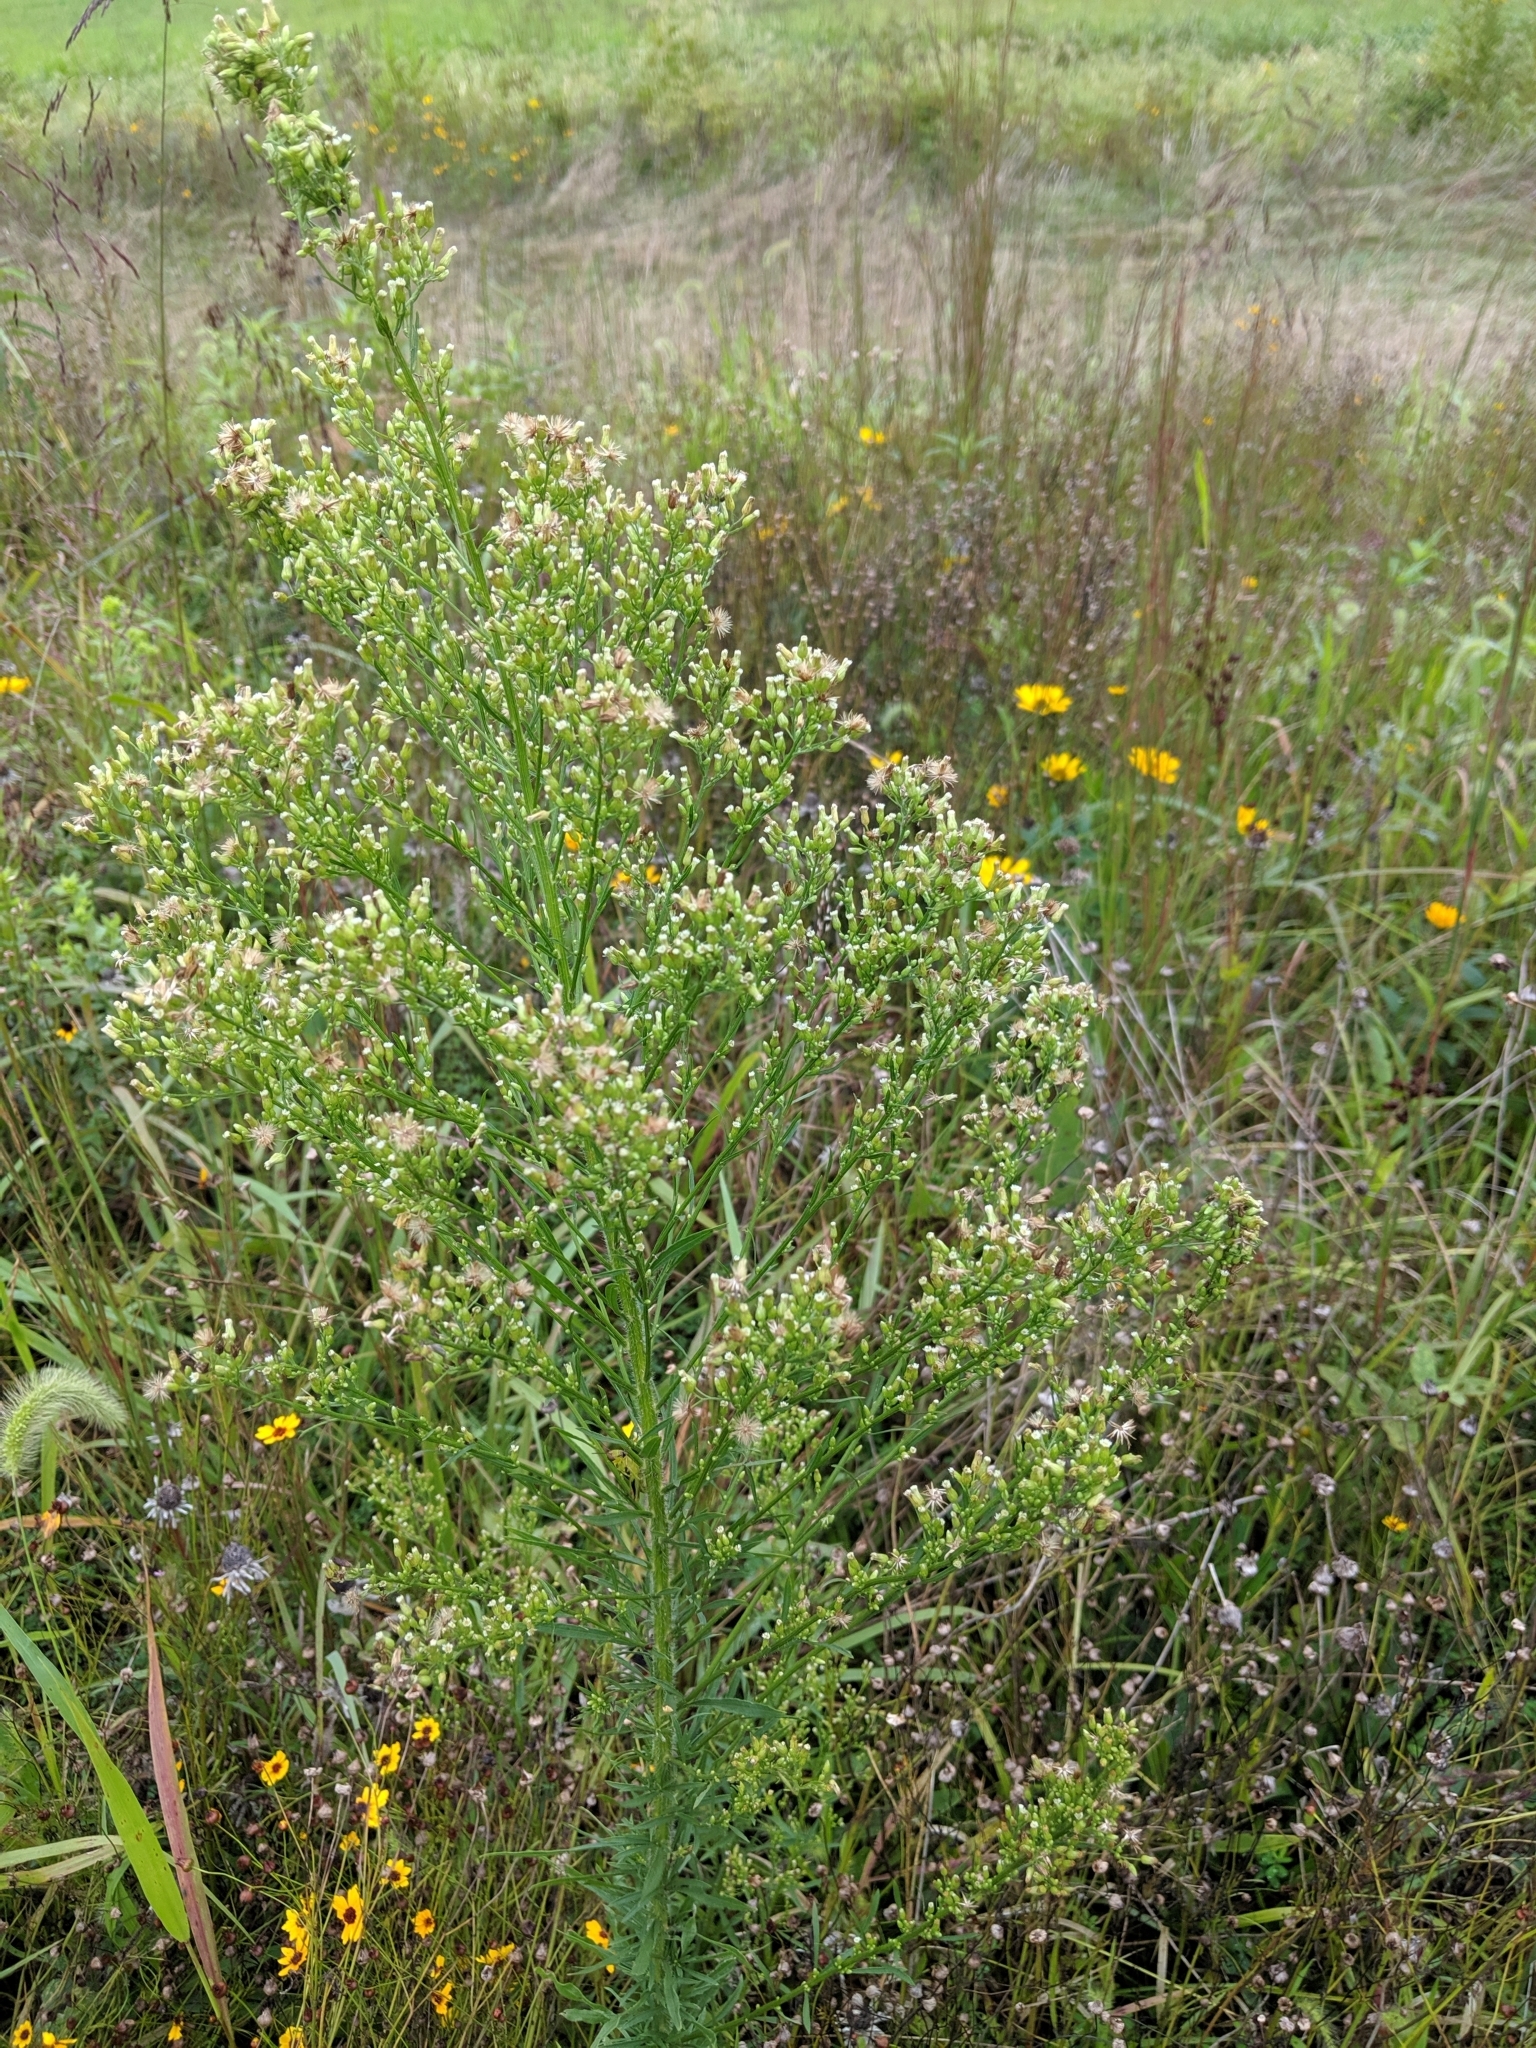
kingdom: Plantae
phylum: Tracheophyta
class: Magnoliopsida
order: Asterales
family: Asteraceae
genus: Erigeron
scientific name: Erigeron canadensis
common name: Canadian fleabane
